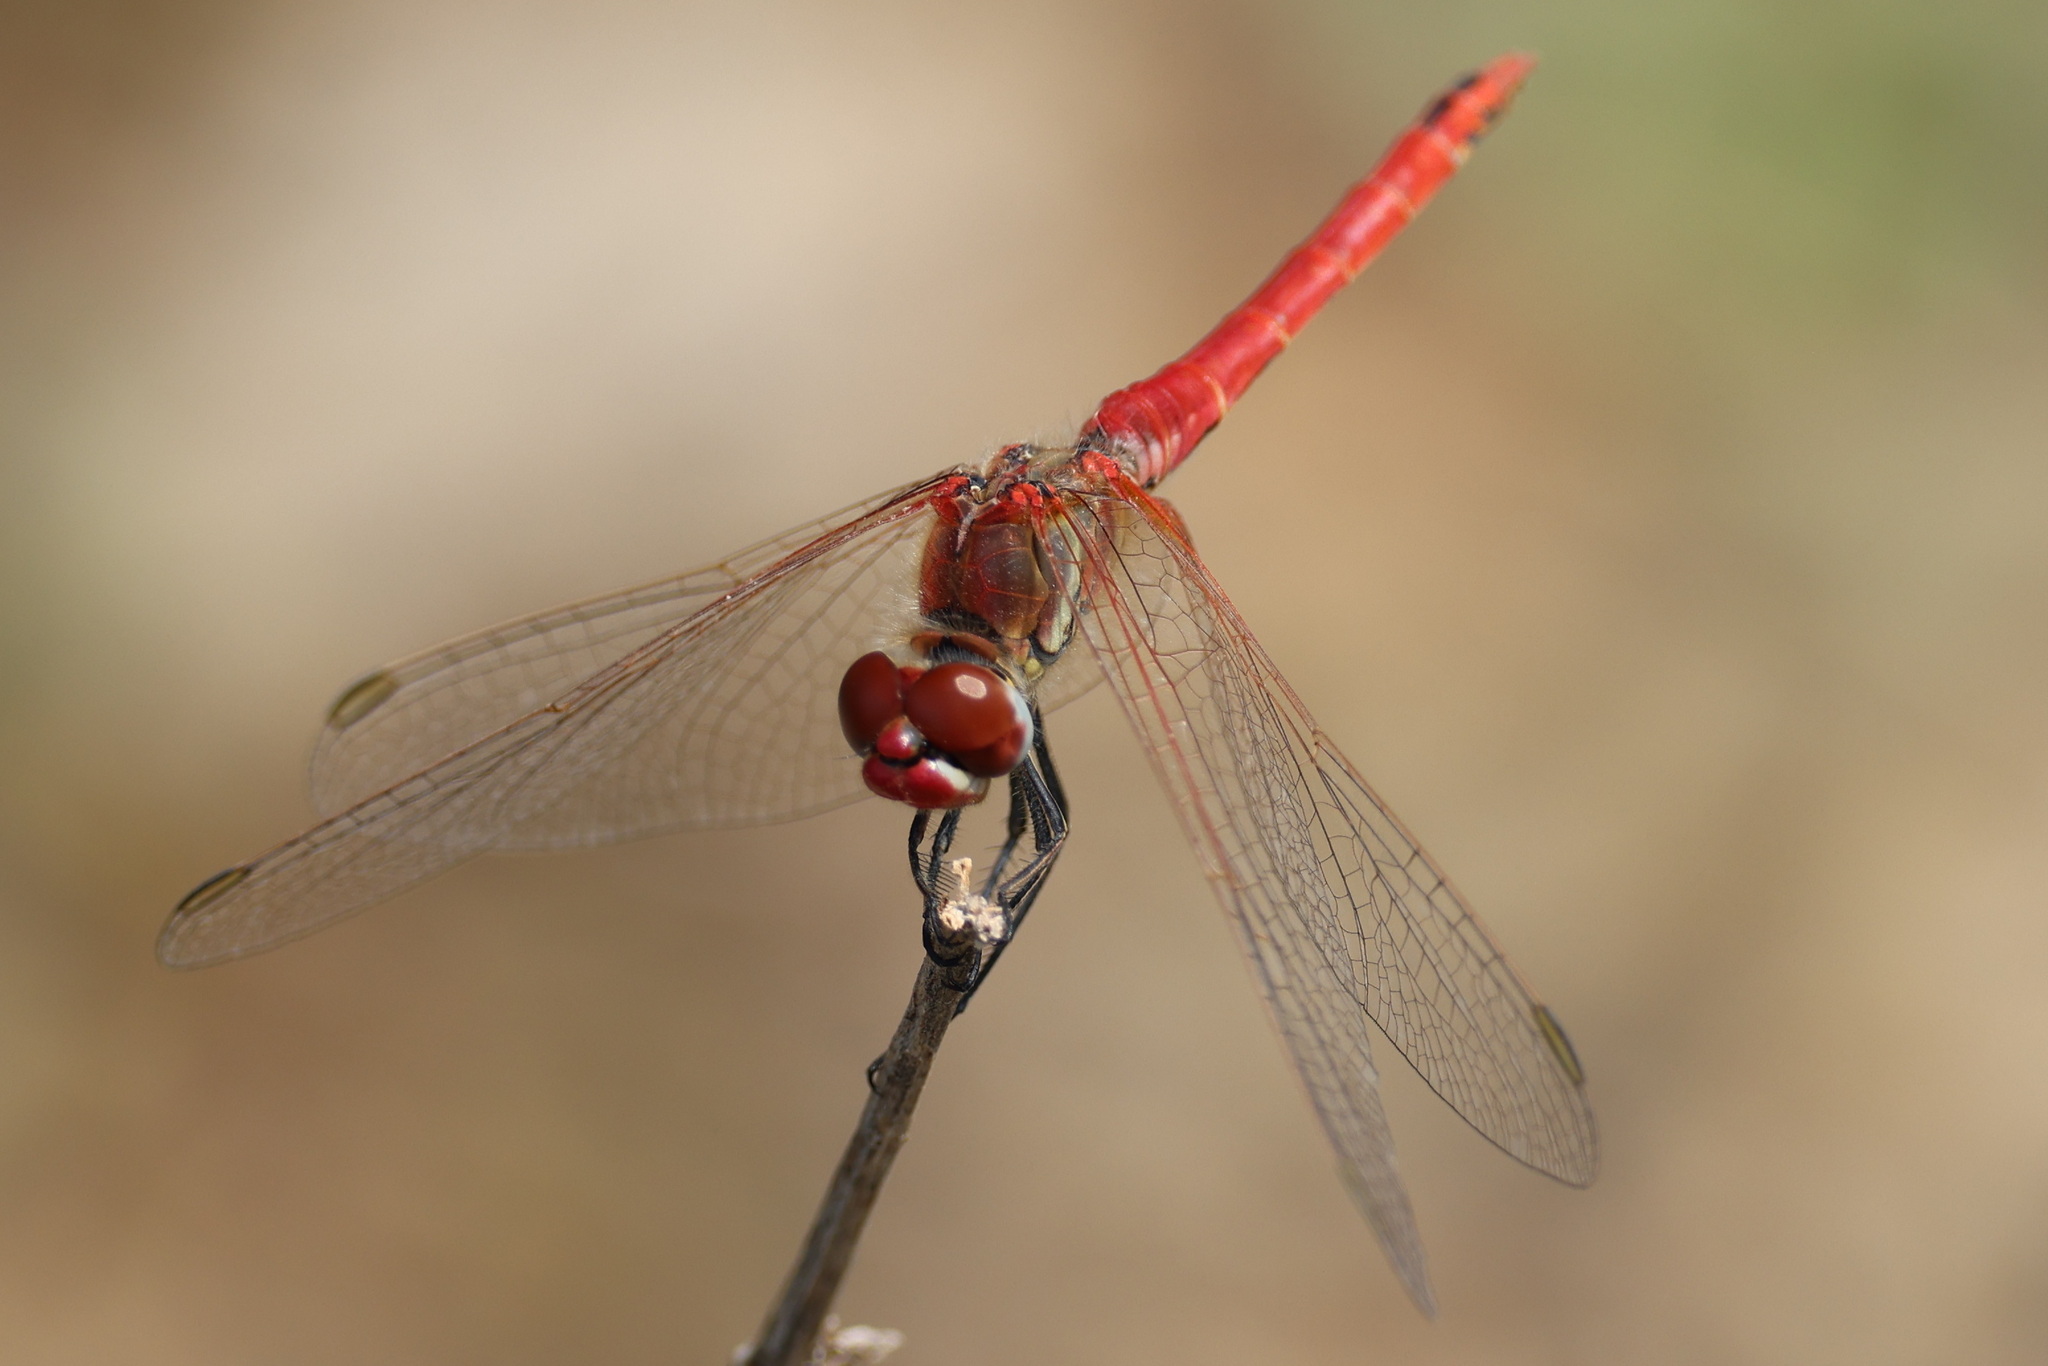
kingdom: Animalia
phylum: Arthropoda
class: Insecta
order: Odonata
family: Libellulidae
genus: Sympetrum
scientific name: Sympetrum fonscolombii
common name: Red-veined darter
